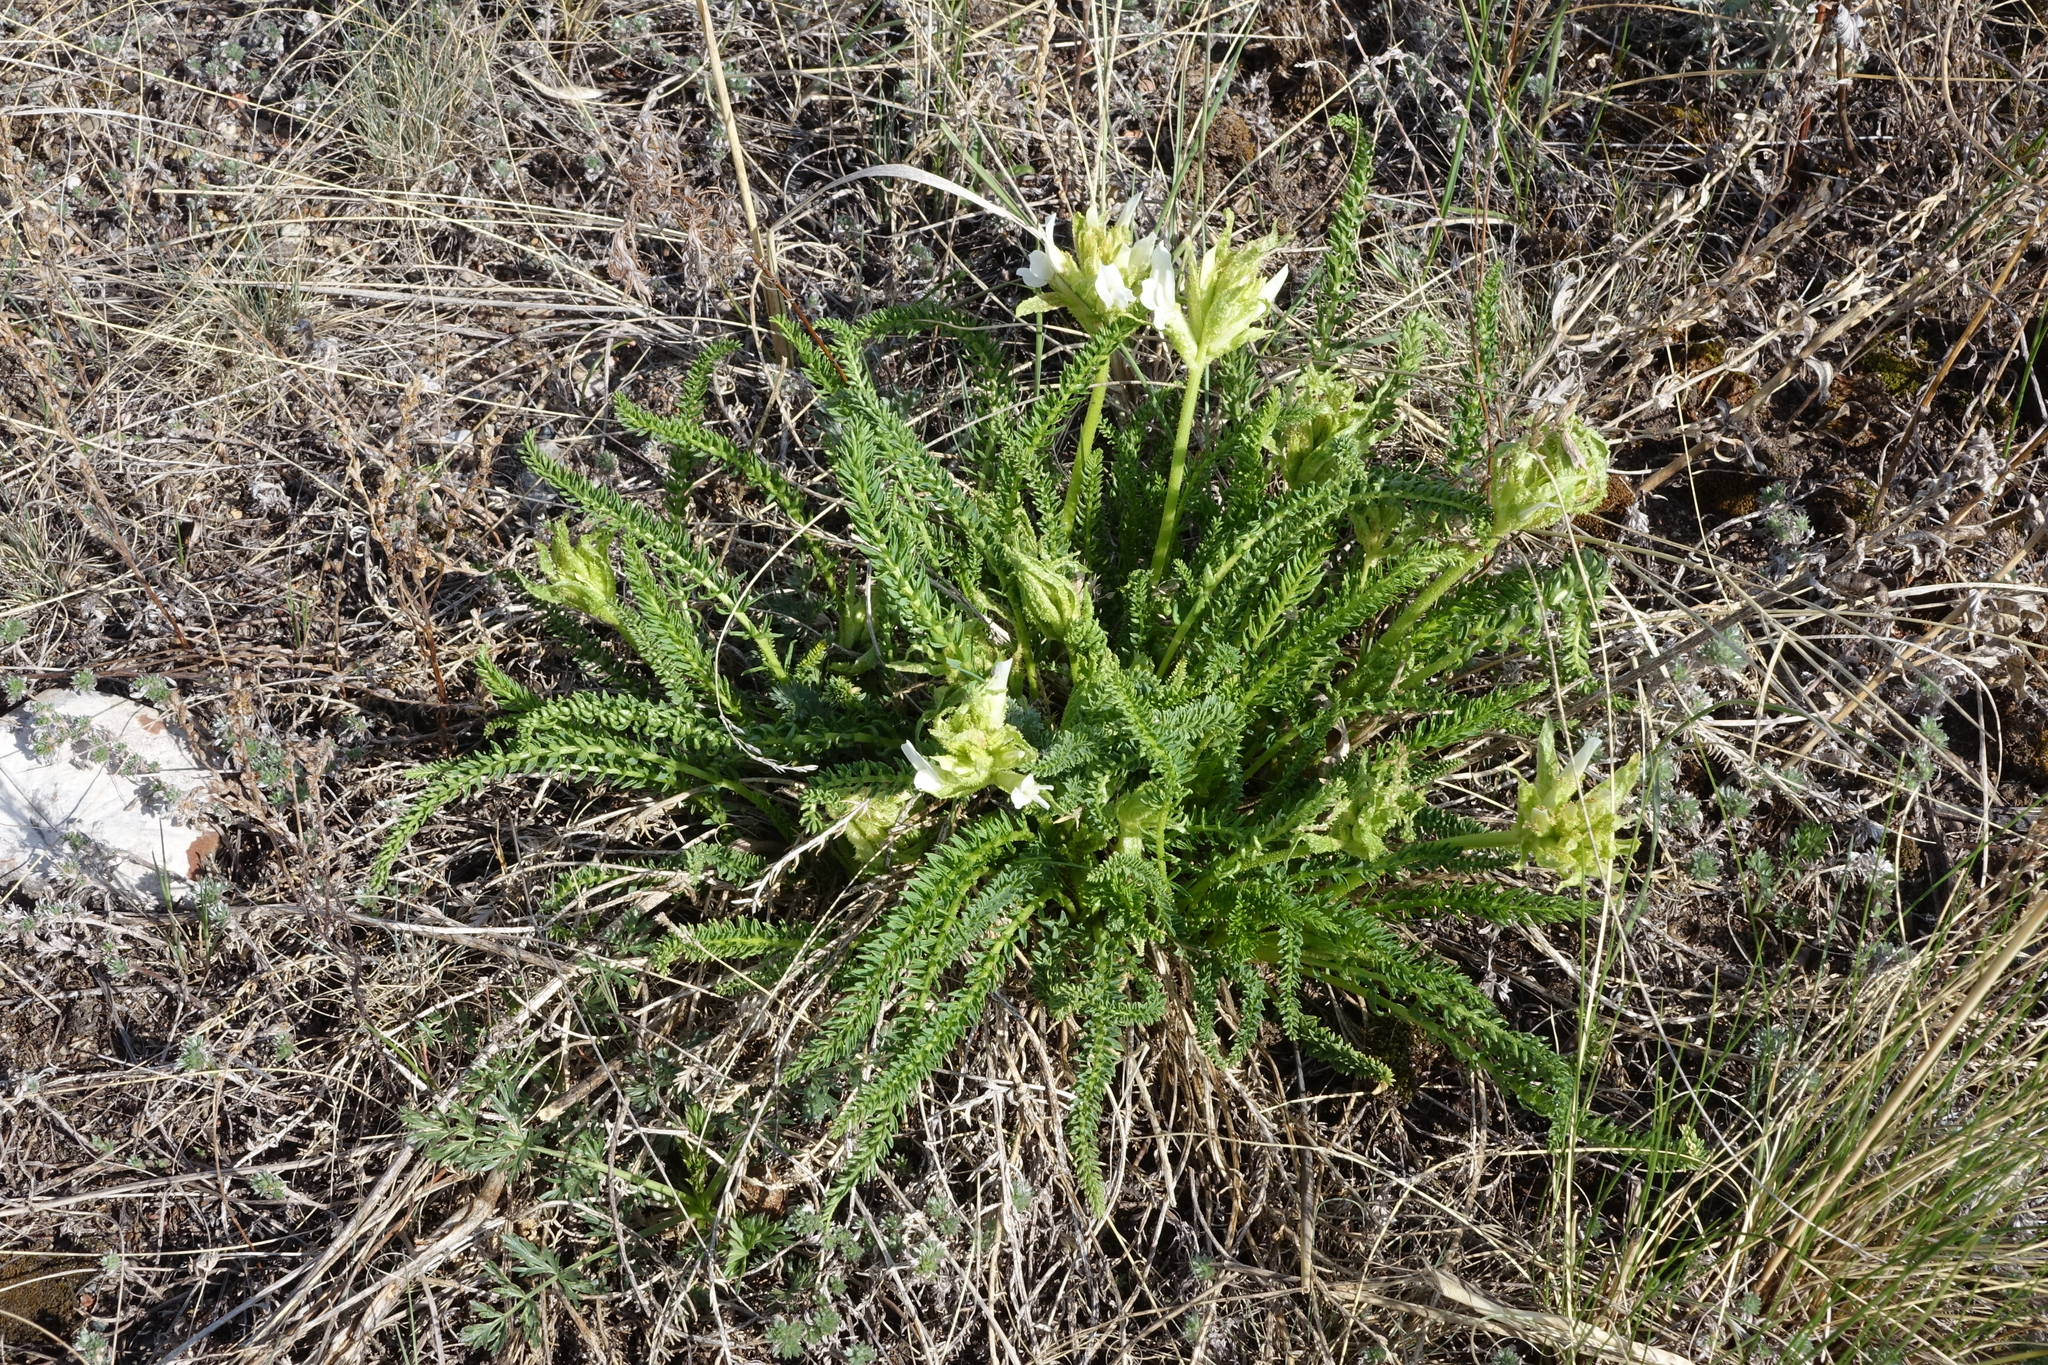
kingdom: Plantae
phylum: Tracheophyta
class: Magnoliopsida
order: Fabales
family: Fabaceae
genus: Oxytropis
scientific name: Oxytropis muricata
